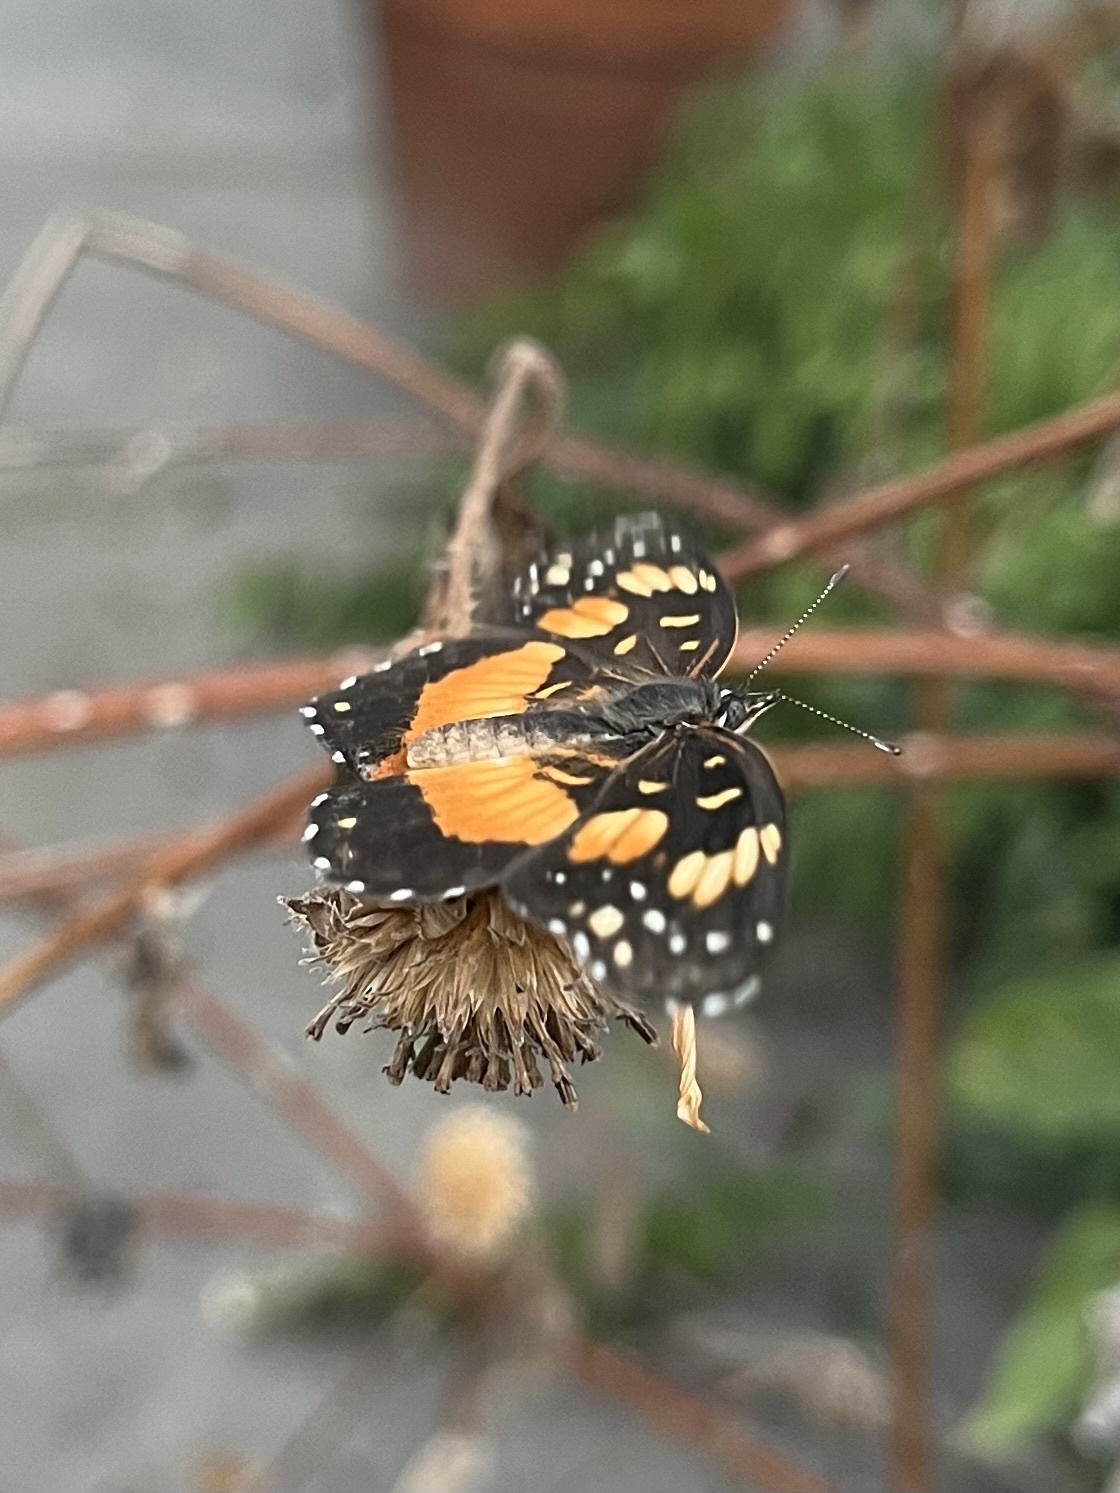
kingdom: Animalia
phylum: Arthropoda
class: Insecta
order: Lepidoptera
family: Nymphalidae
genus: Chlosyne
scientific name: Chlosyne lacinia
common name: Bordered patch
